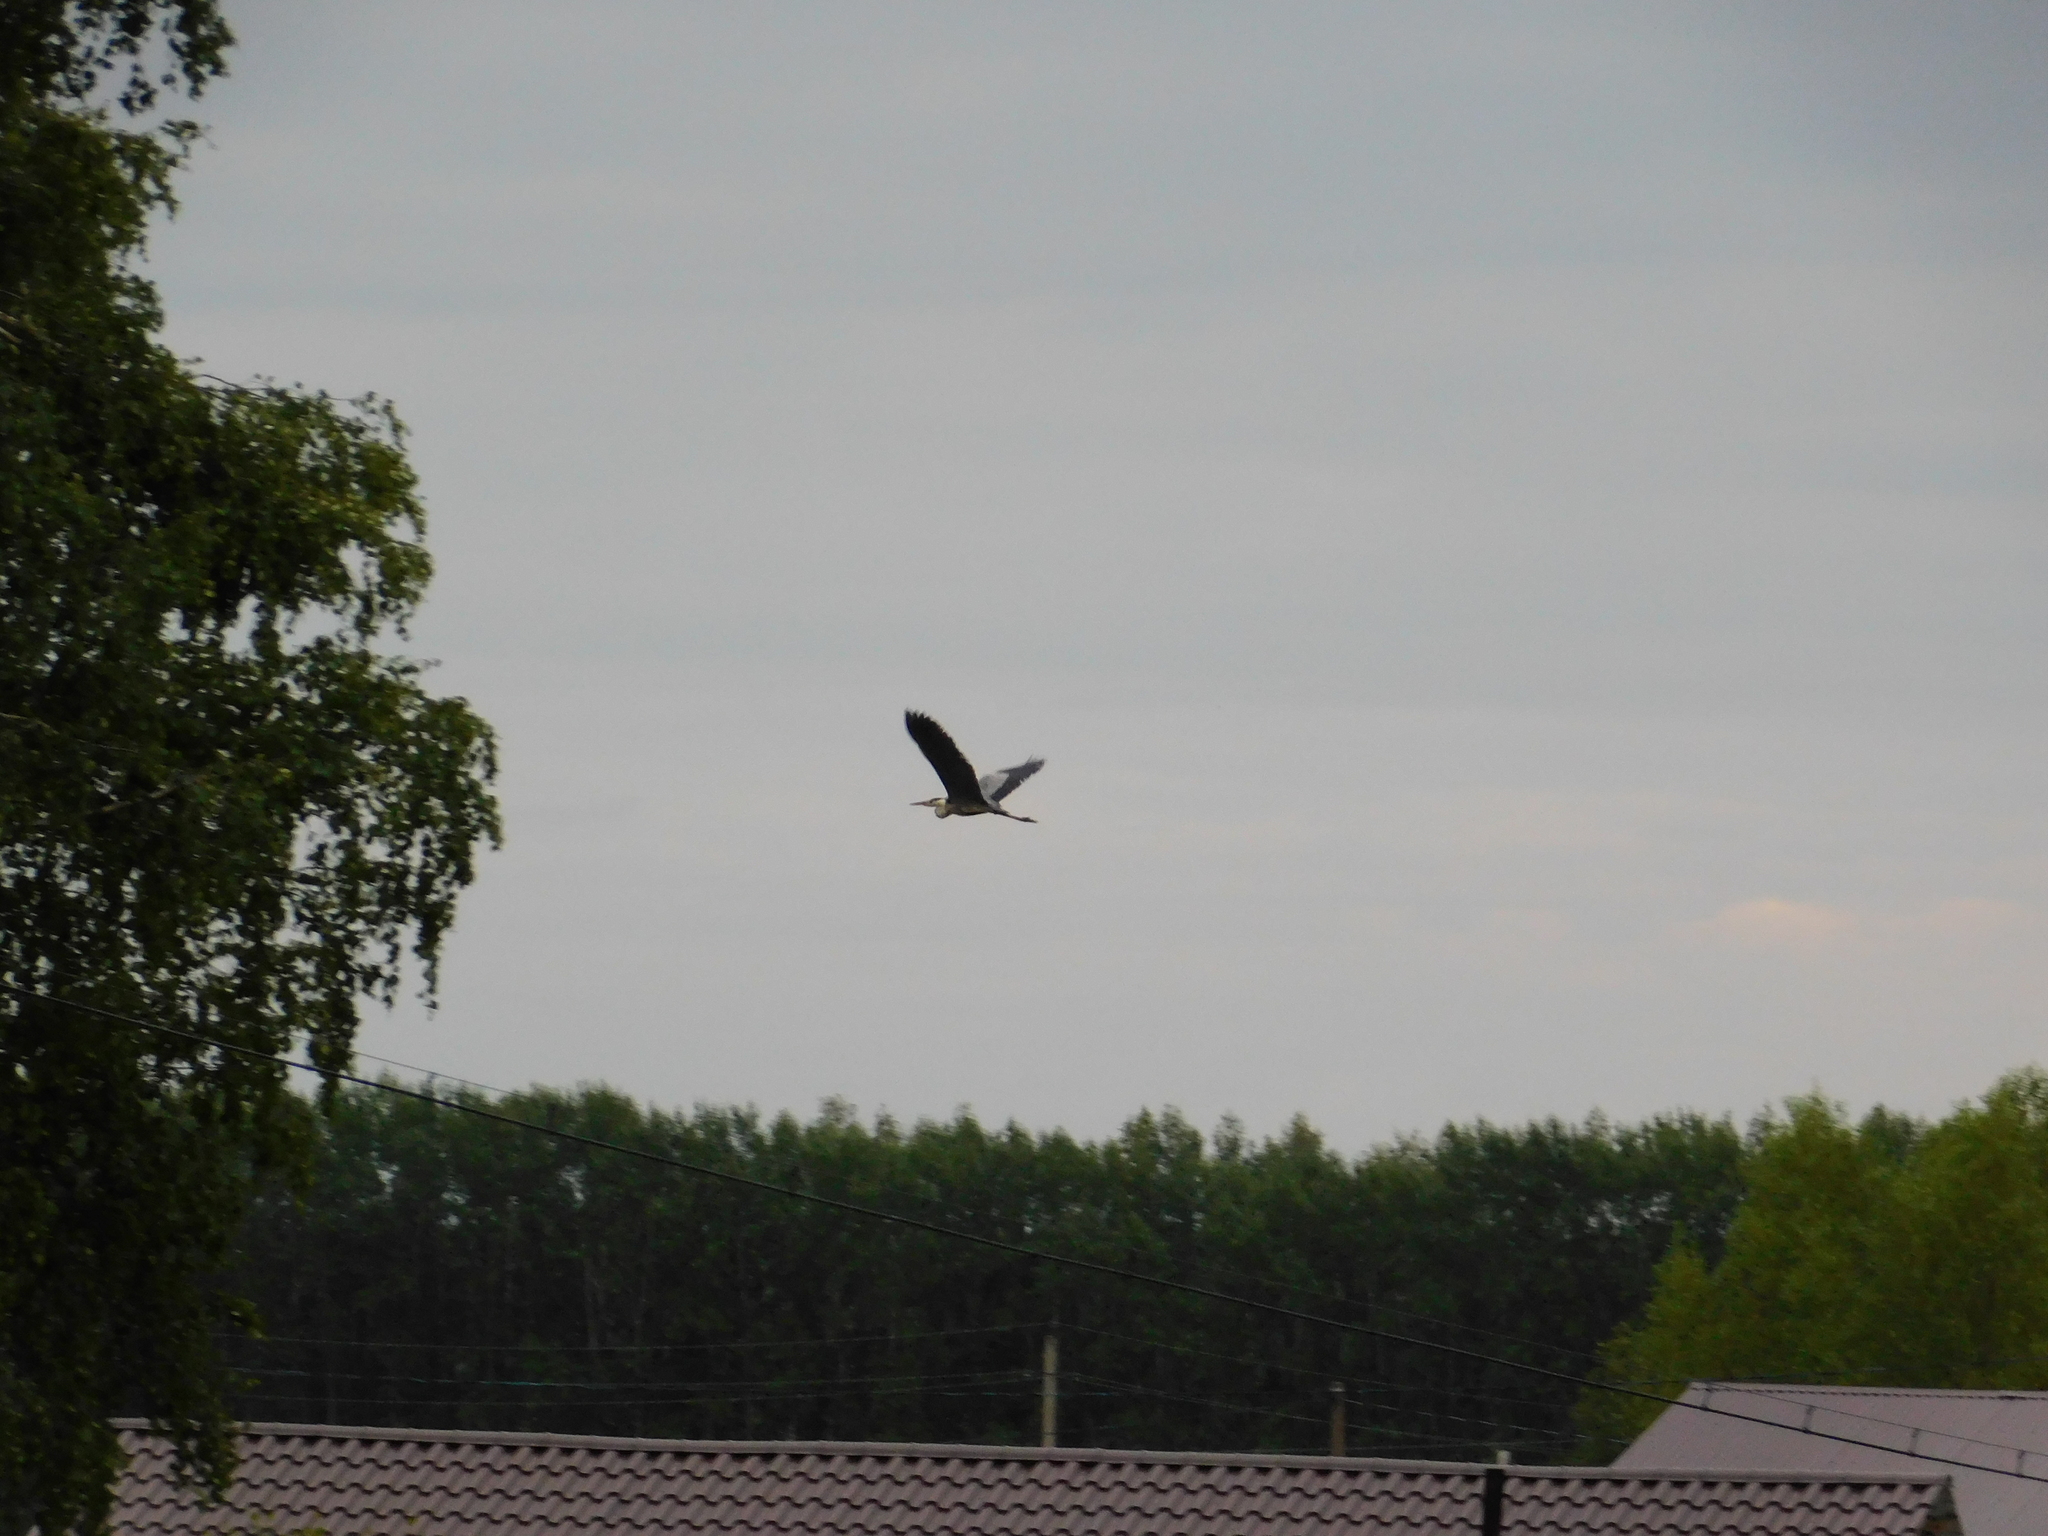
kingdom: Animalia
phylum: Chordata
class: Aves
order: Pelecaniformes
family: Ardeidae
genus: Ardea
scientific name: Ardea cinerea
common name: Grey heron
